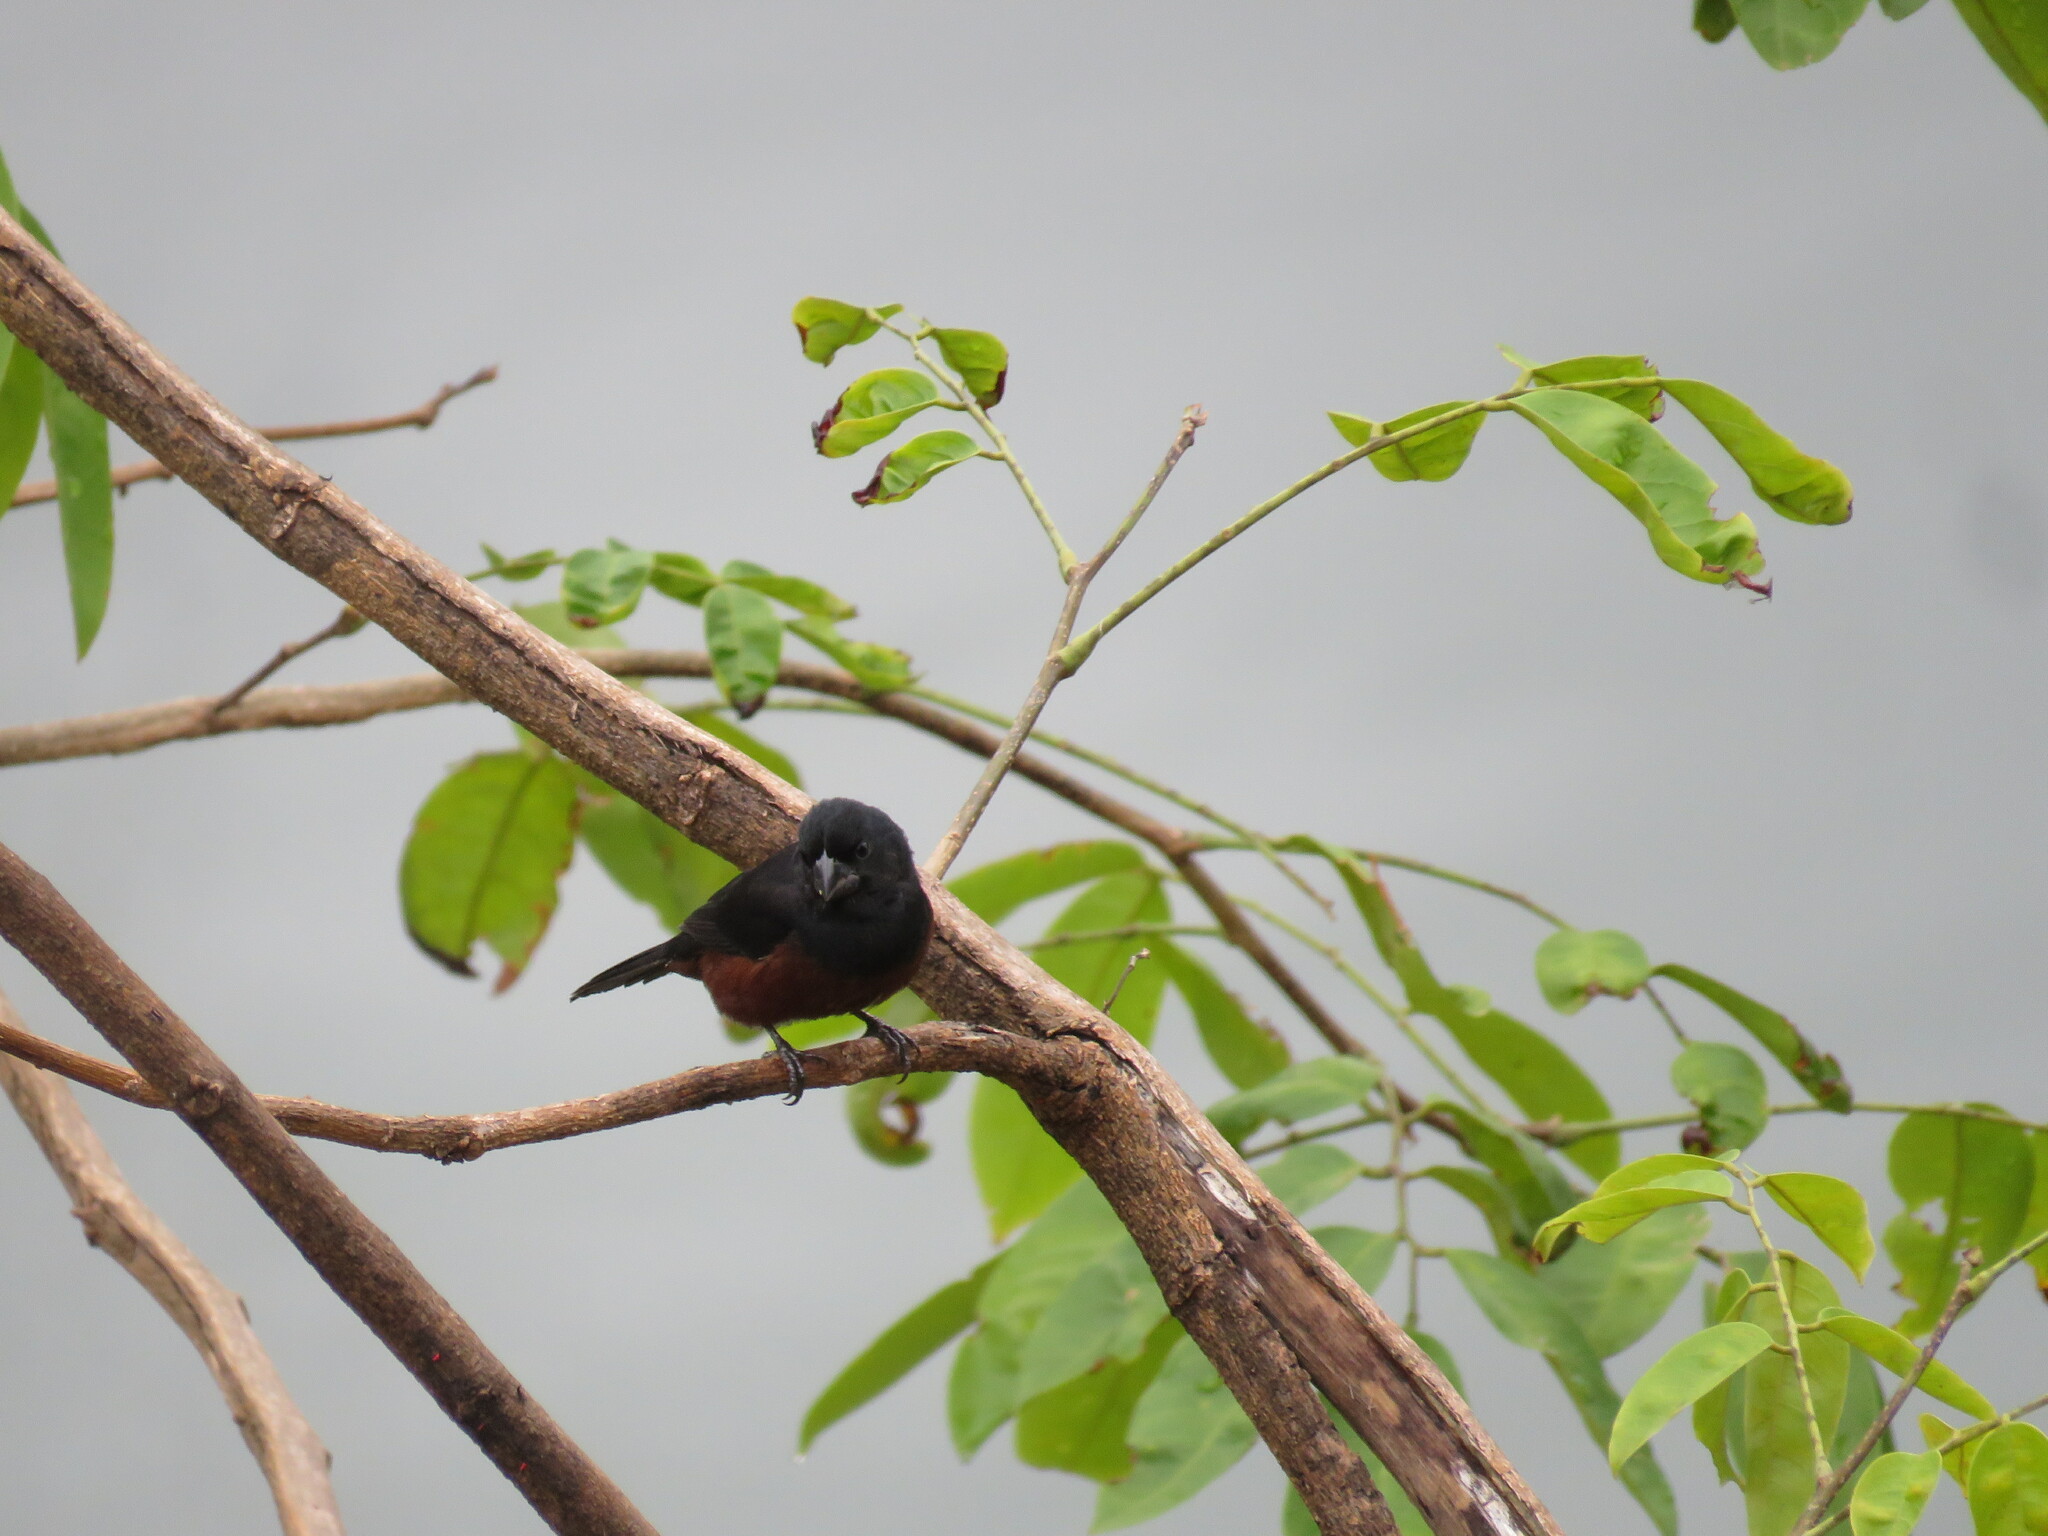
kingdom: Animalia
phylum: Chordata
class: Aves
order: Passeriformes
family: Thraupidae
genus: Sporophila
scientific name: Sporophila angolensis
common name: Chestnut-bellied seed-finch
